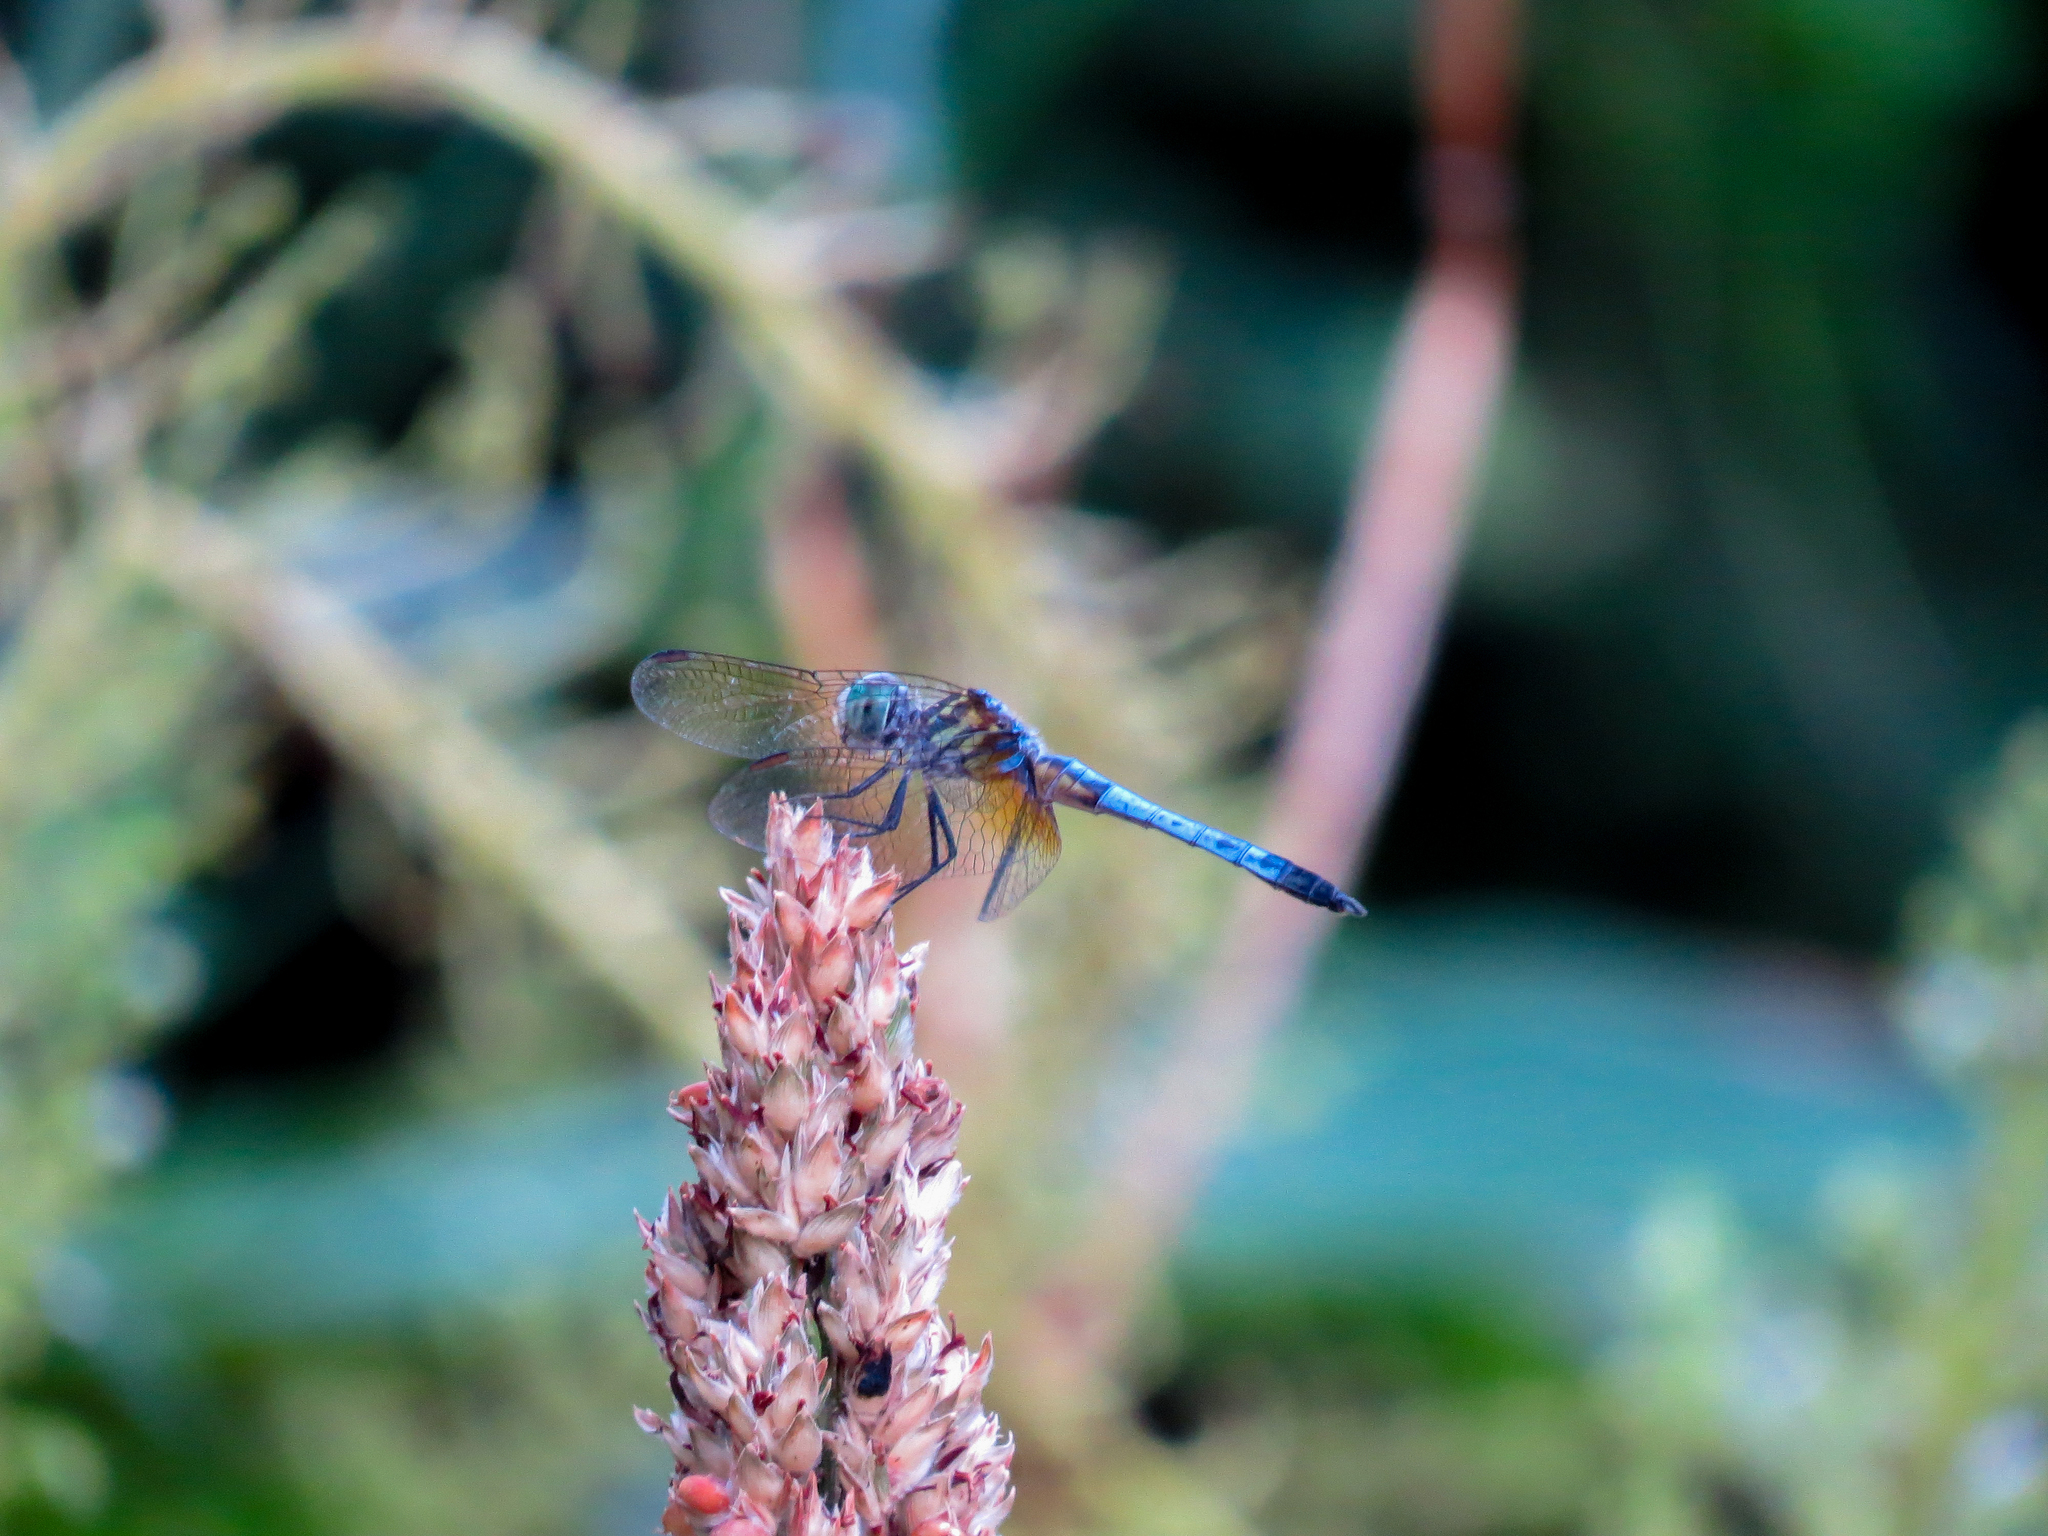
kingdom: Animalia
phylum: Arthropoda
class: Insecta
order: Odonata
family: Libellulidae
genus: Pachydiplax
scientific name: Pachydiplax longipennis
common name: Blue dasher
